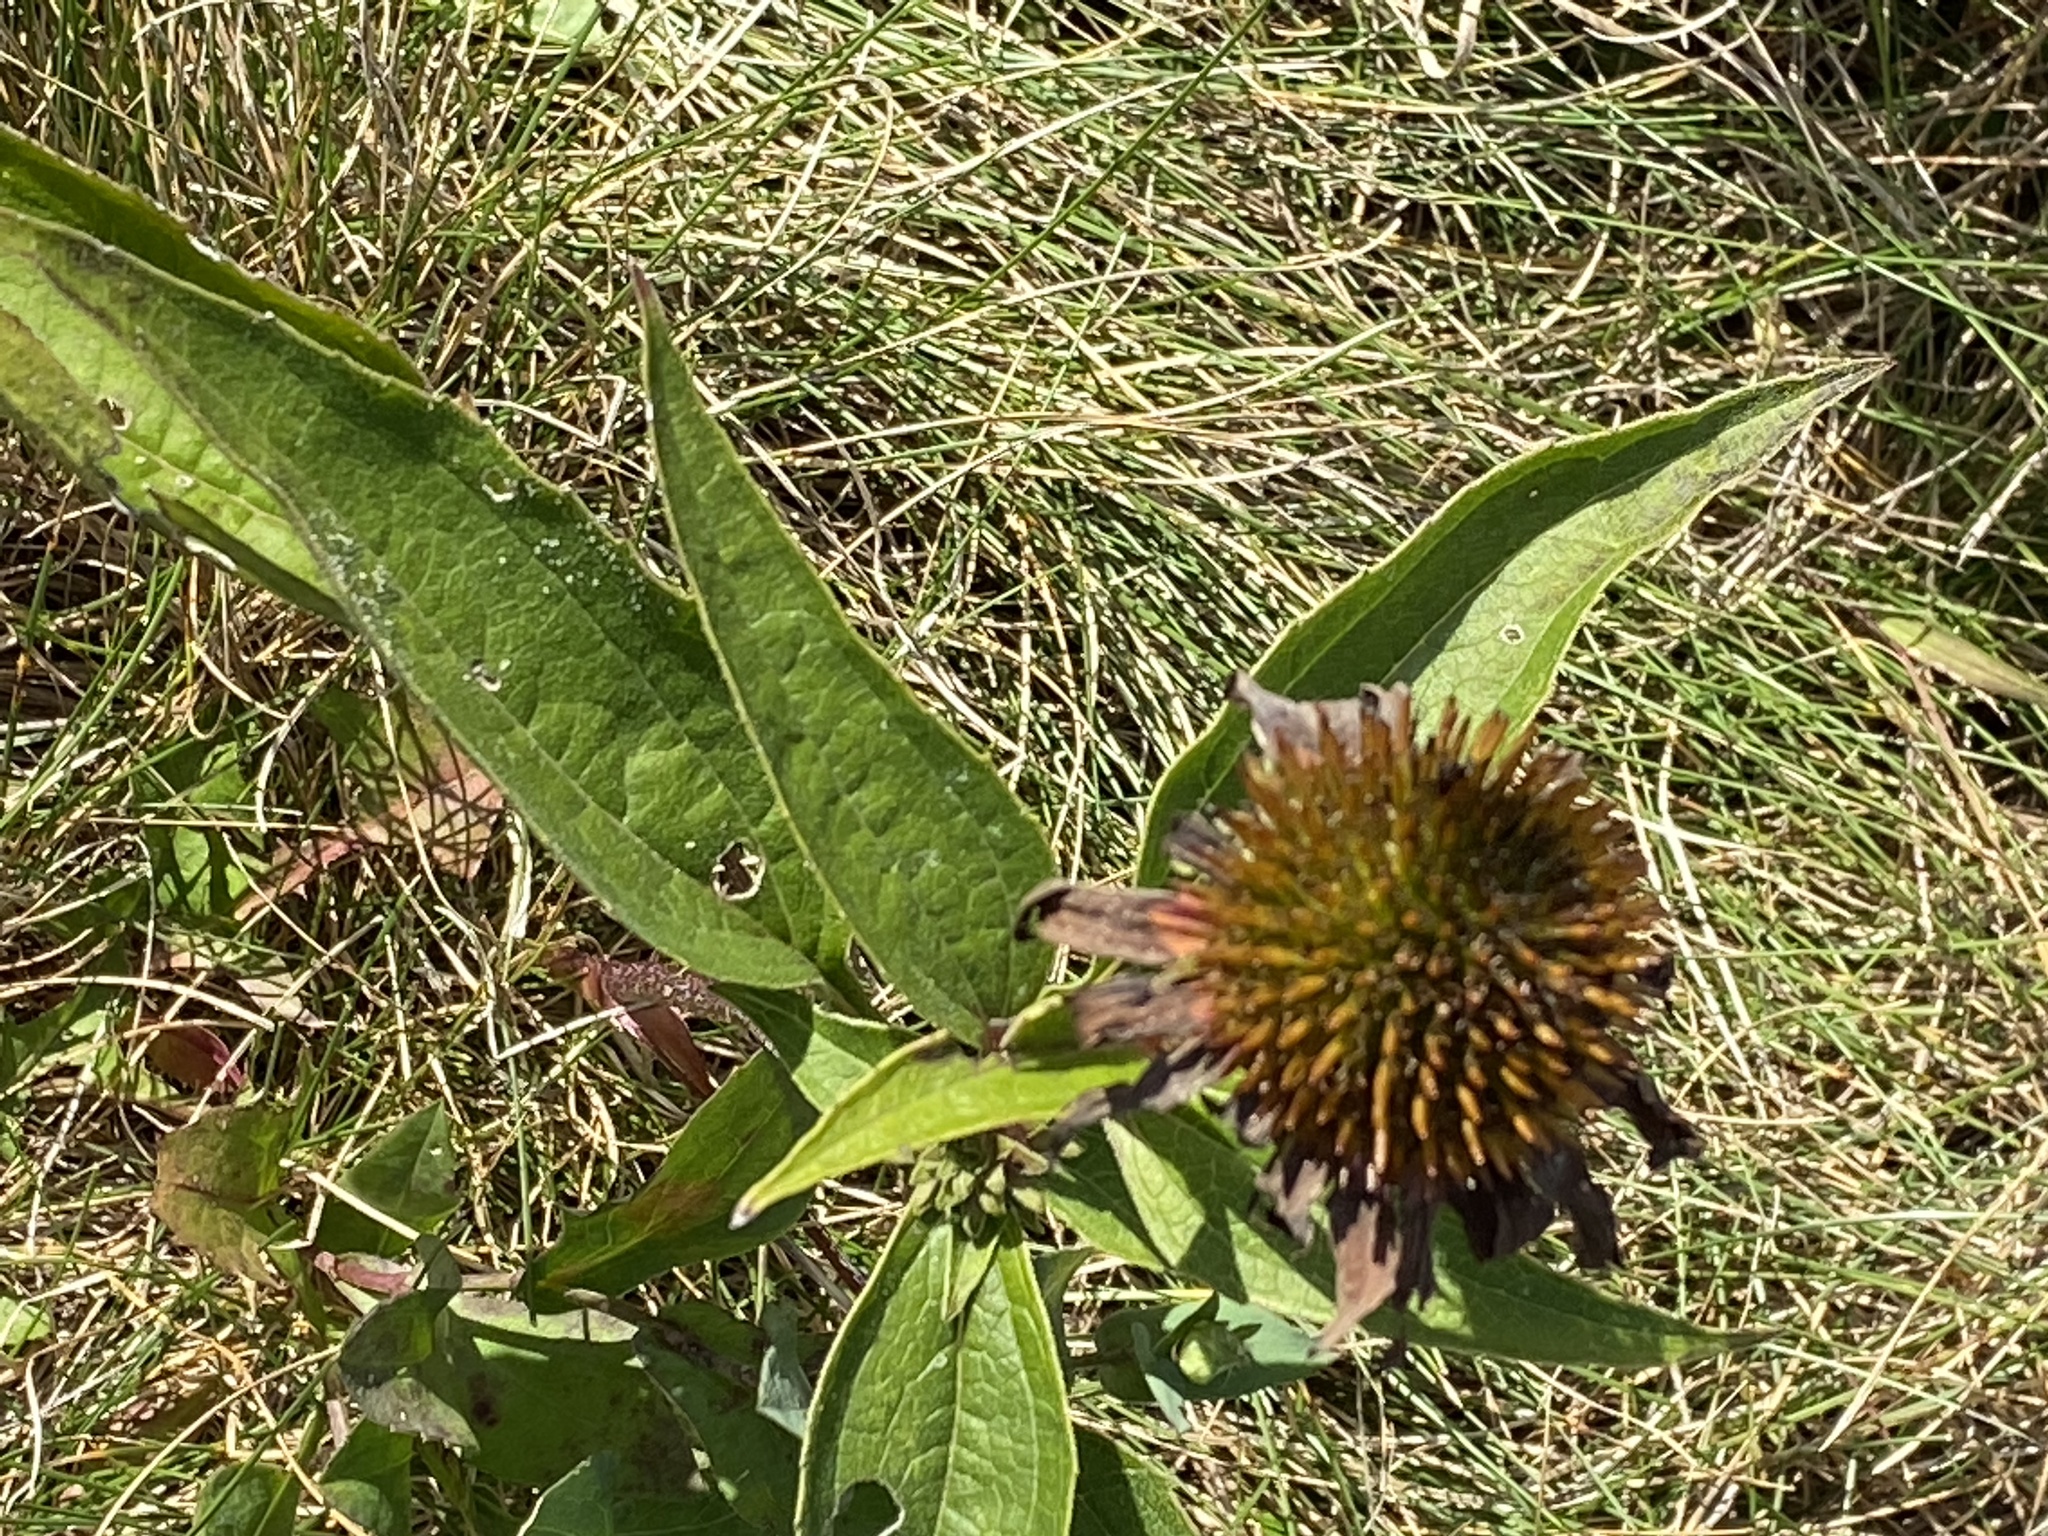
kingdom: Plantae
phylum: Tracheophyta
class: Magnoliopsida
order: Asterales
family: Asteraceae
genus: Echinacea
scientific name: Echinacea purpurea
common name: Broad-leaved purple coneflower
